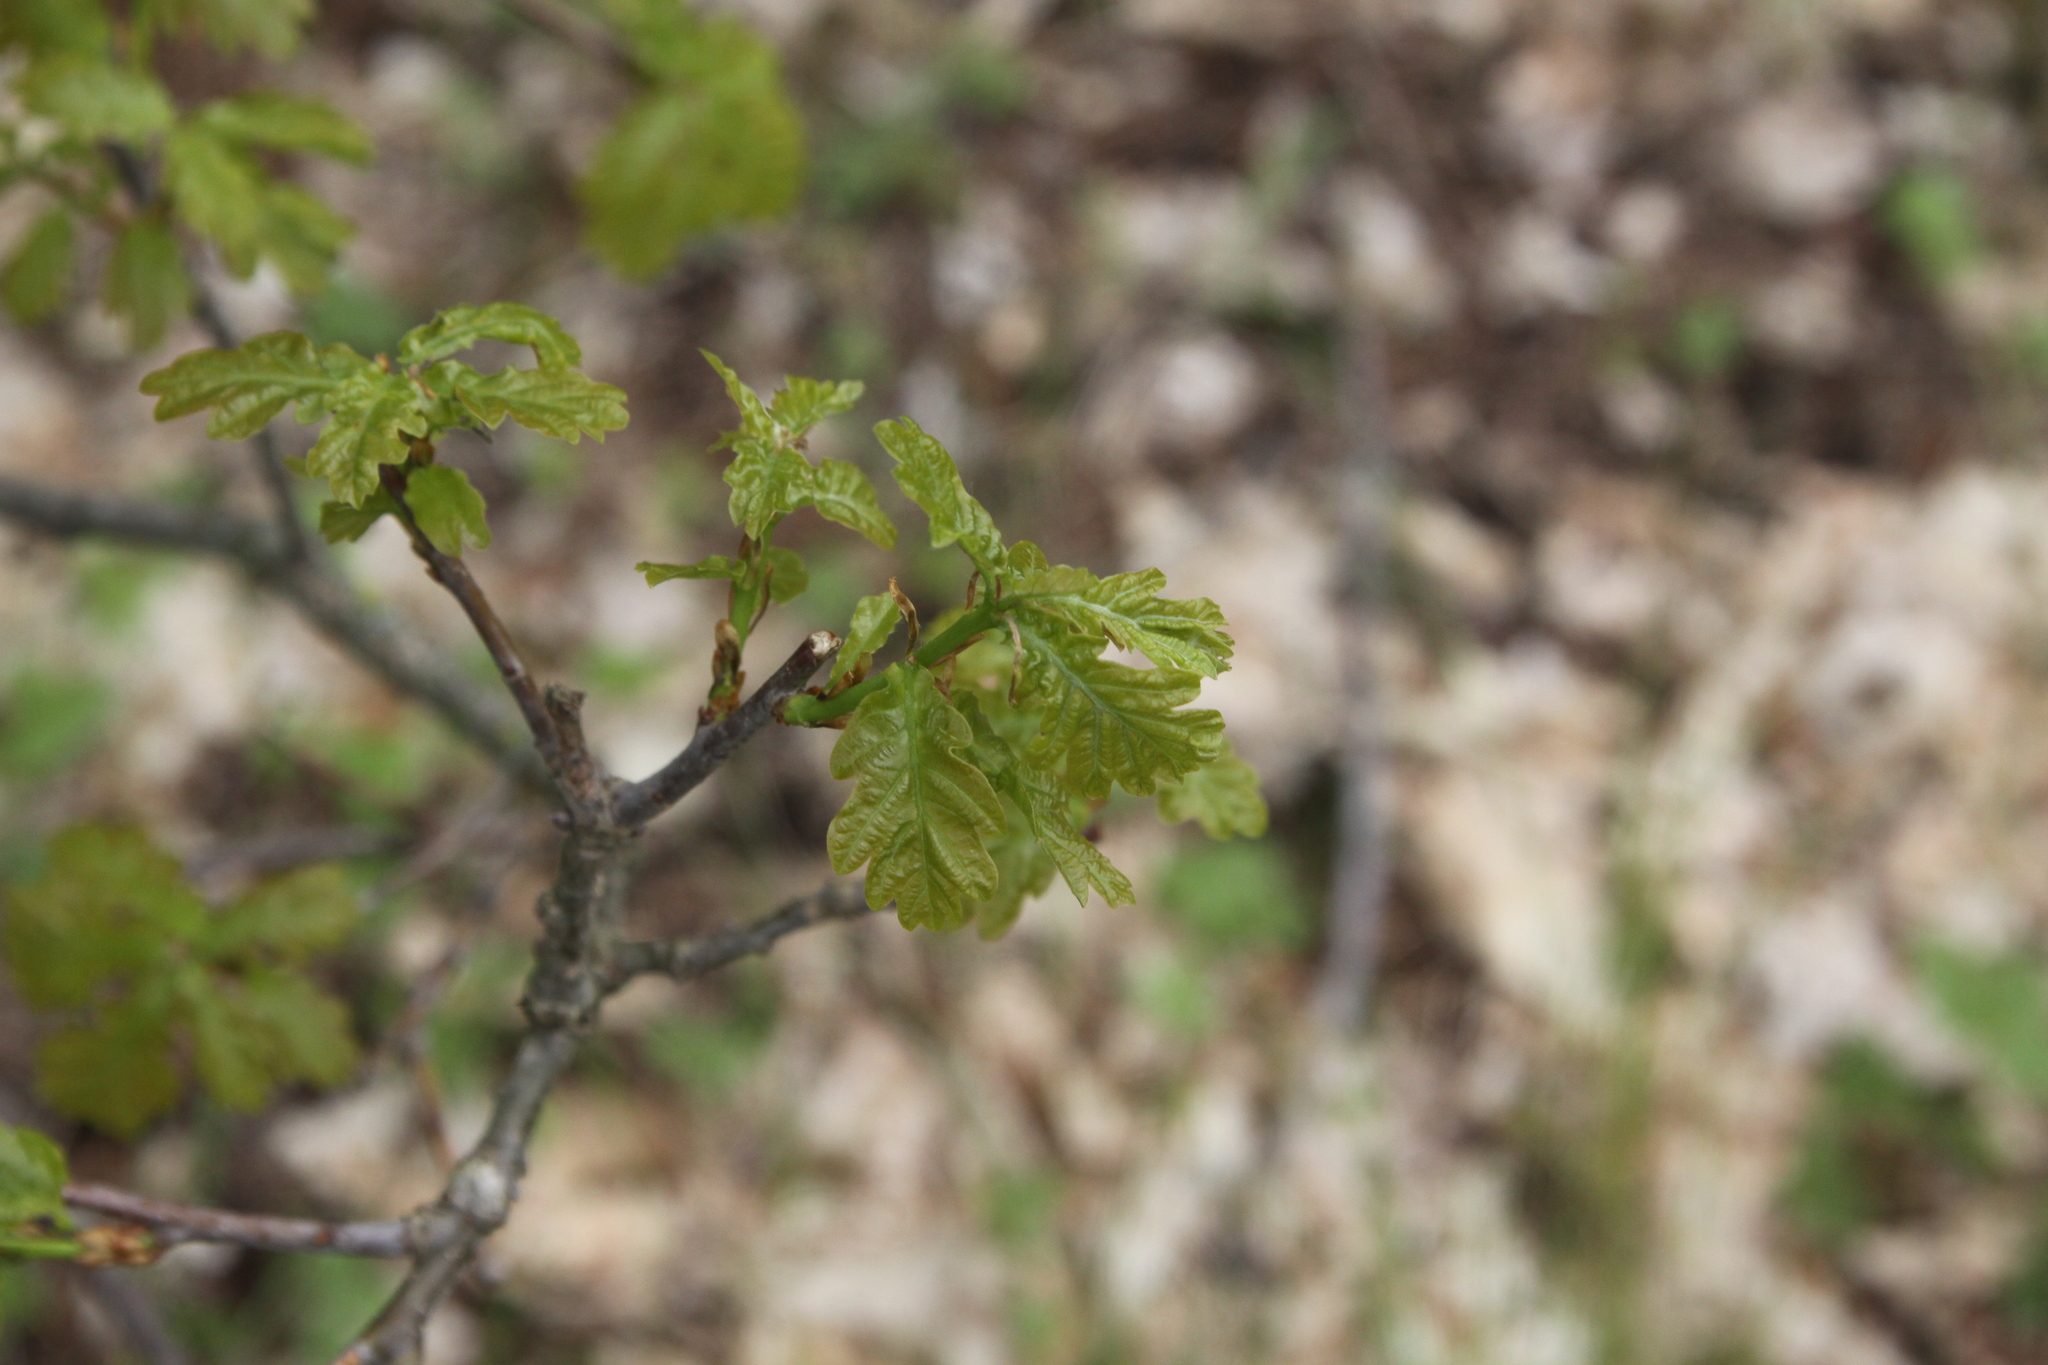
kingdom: Plantae
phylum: Tracheophyta
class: Magnoliopsida
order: Fagales
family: Fagaceae
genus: Quercus
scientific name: Quercus robur
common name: Pedunculate oak
